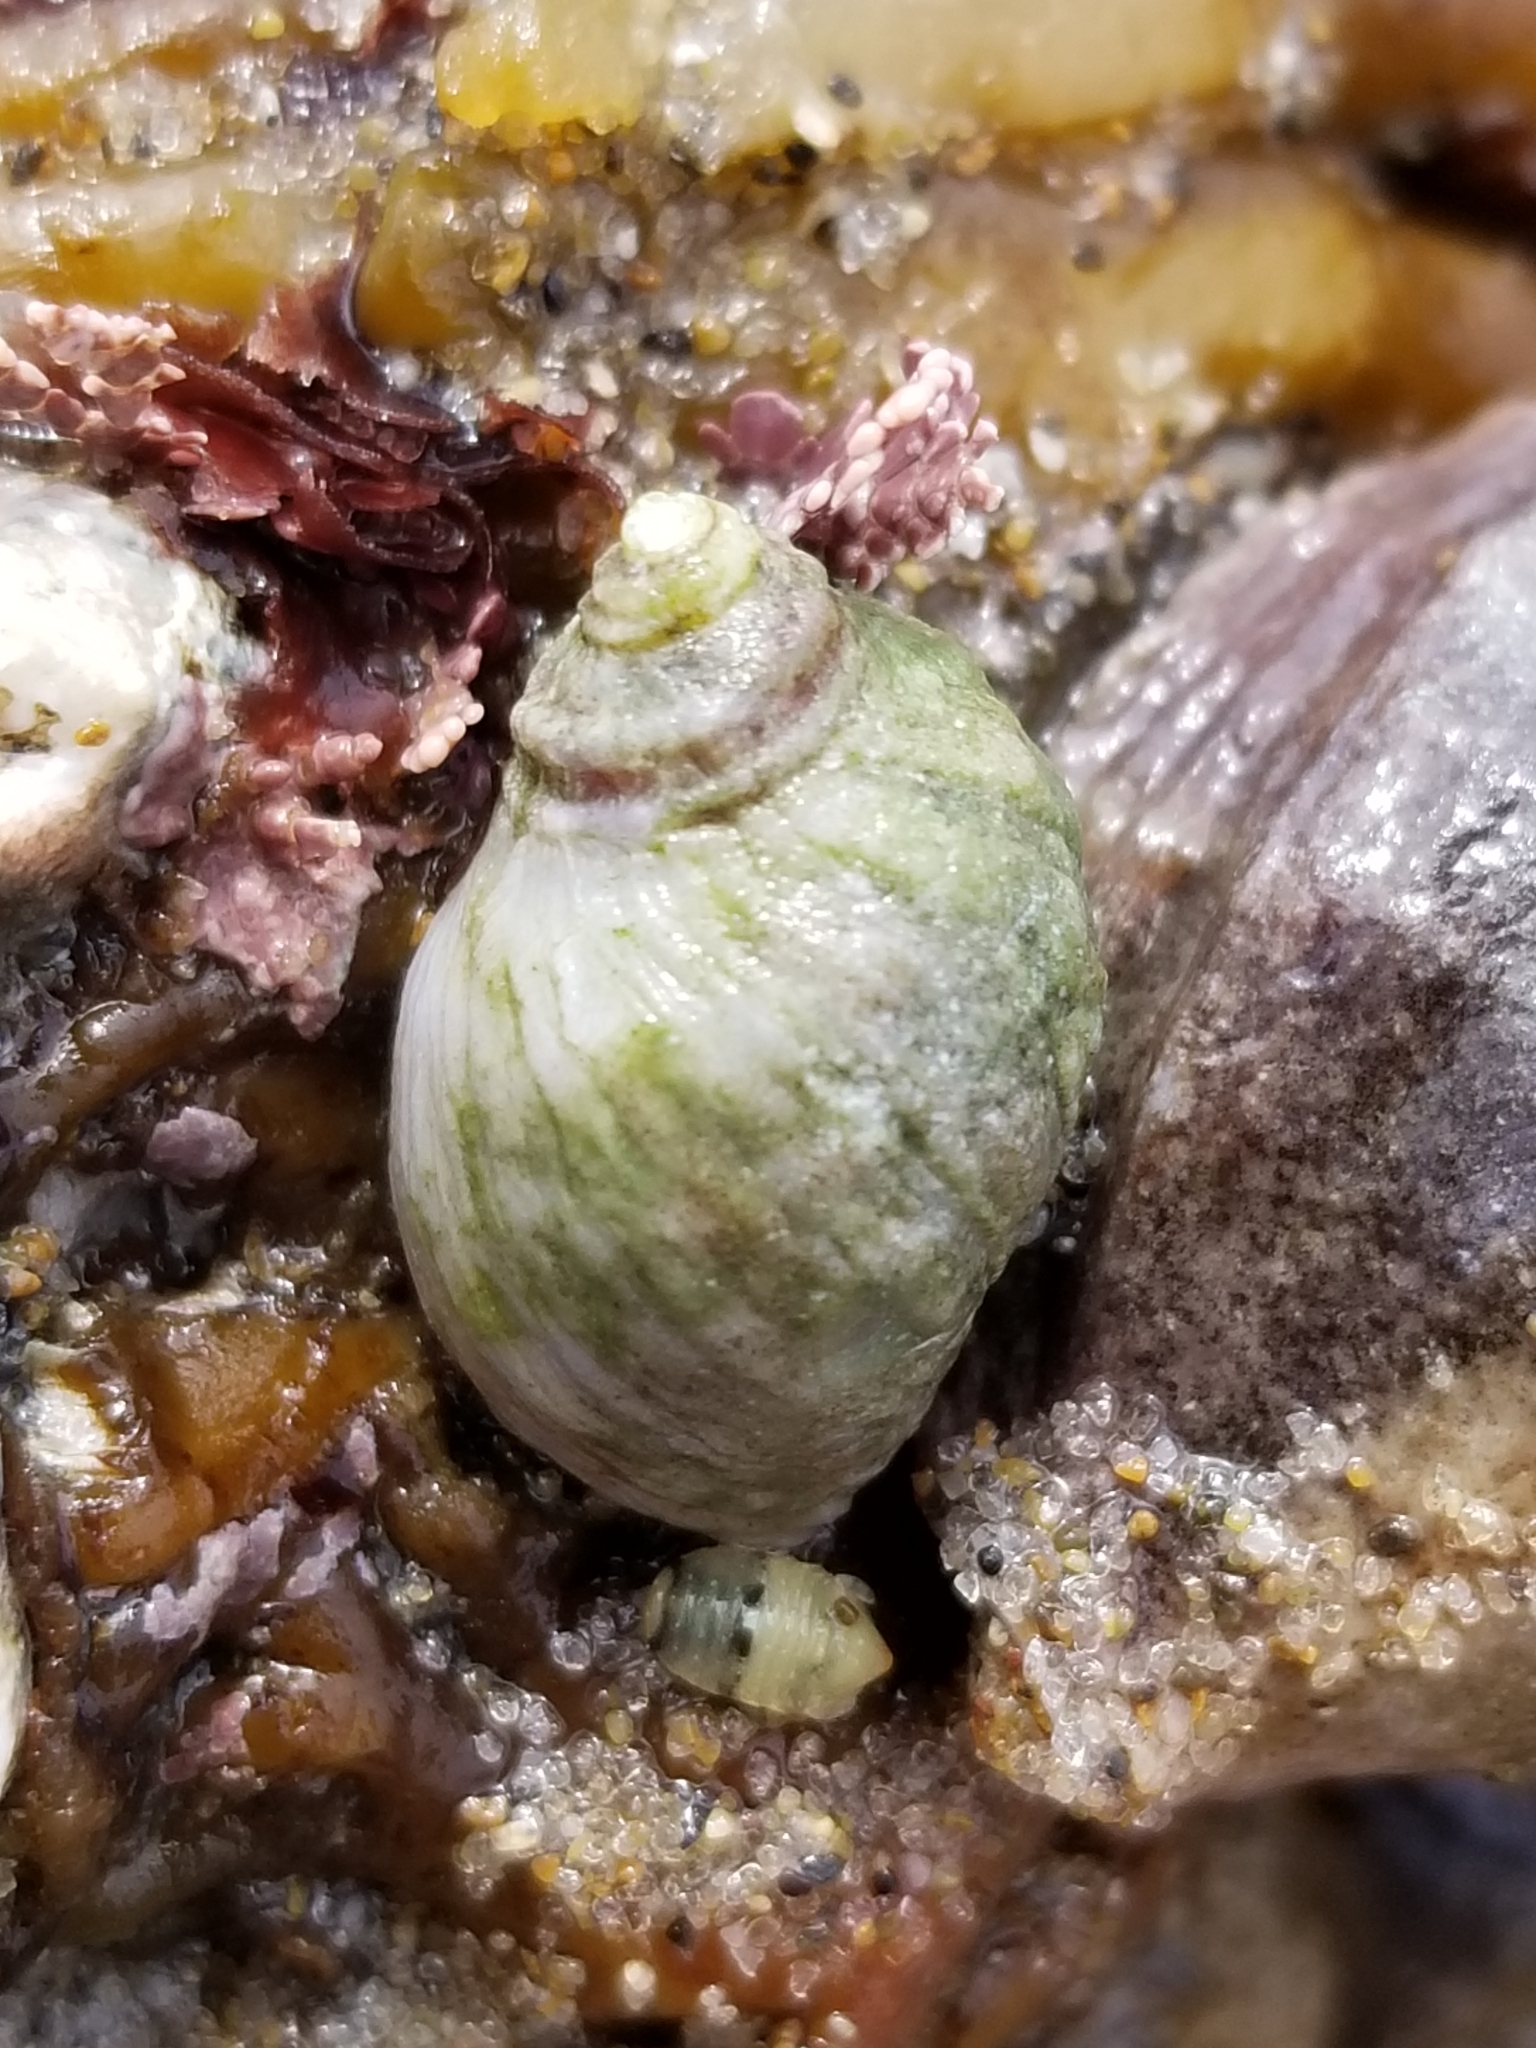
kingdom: Animalia
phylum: Mollusca
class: Gastropoda
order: Neogastropoda
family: Muricidae
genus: Nucella
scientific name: Nucella ostrina
